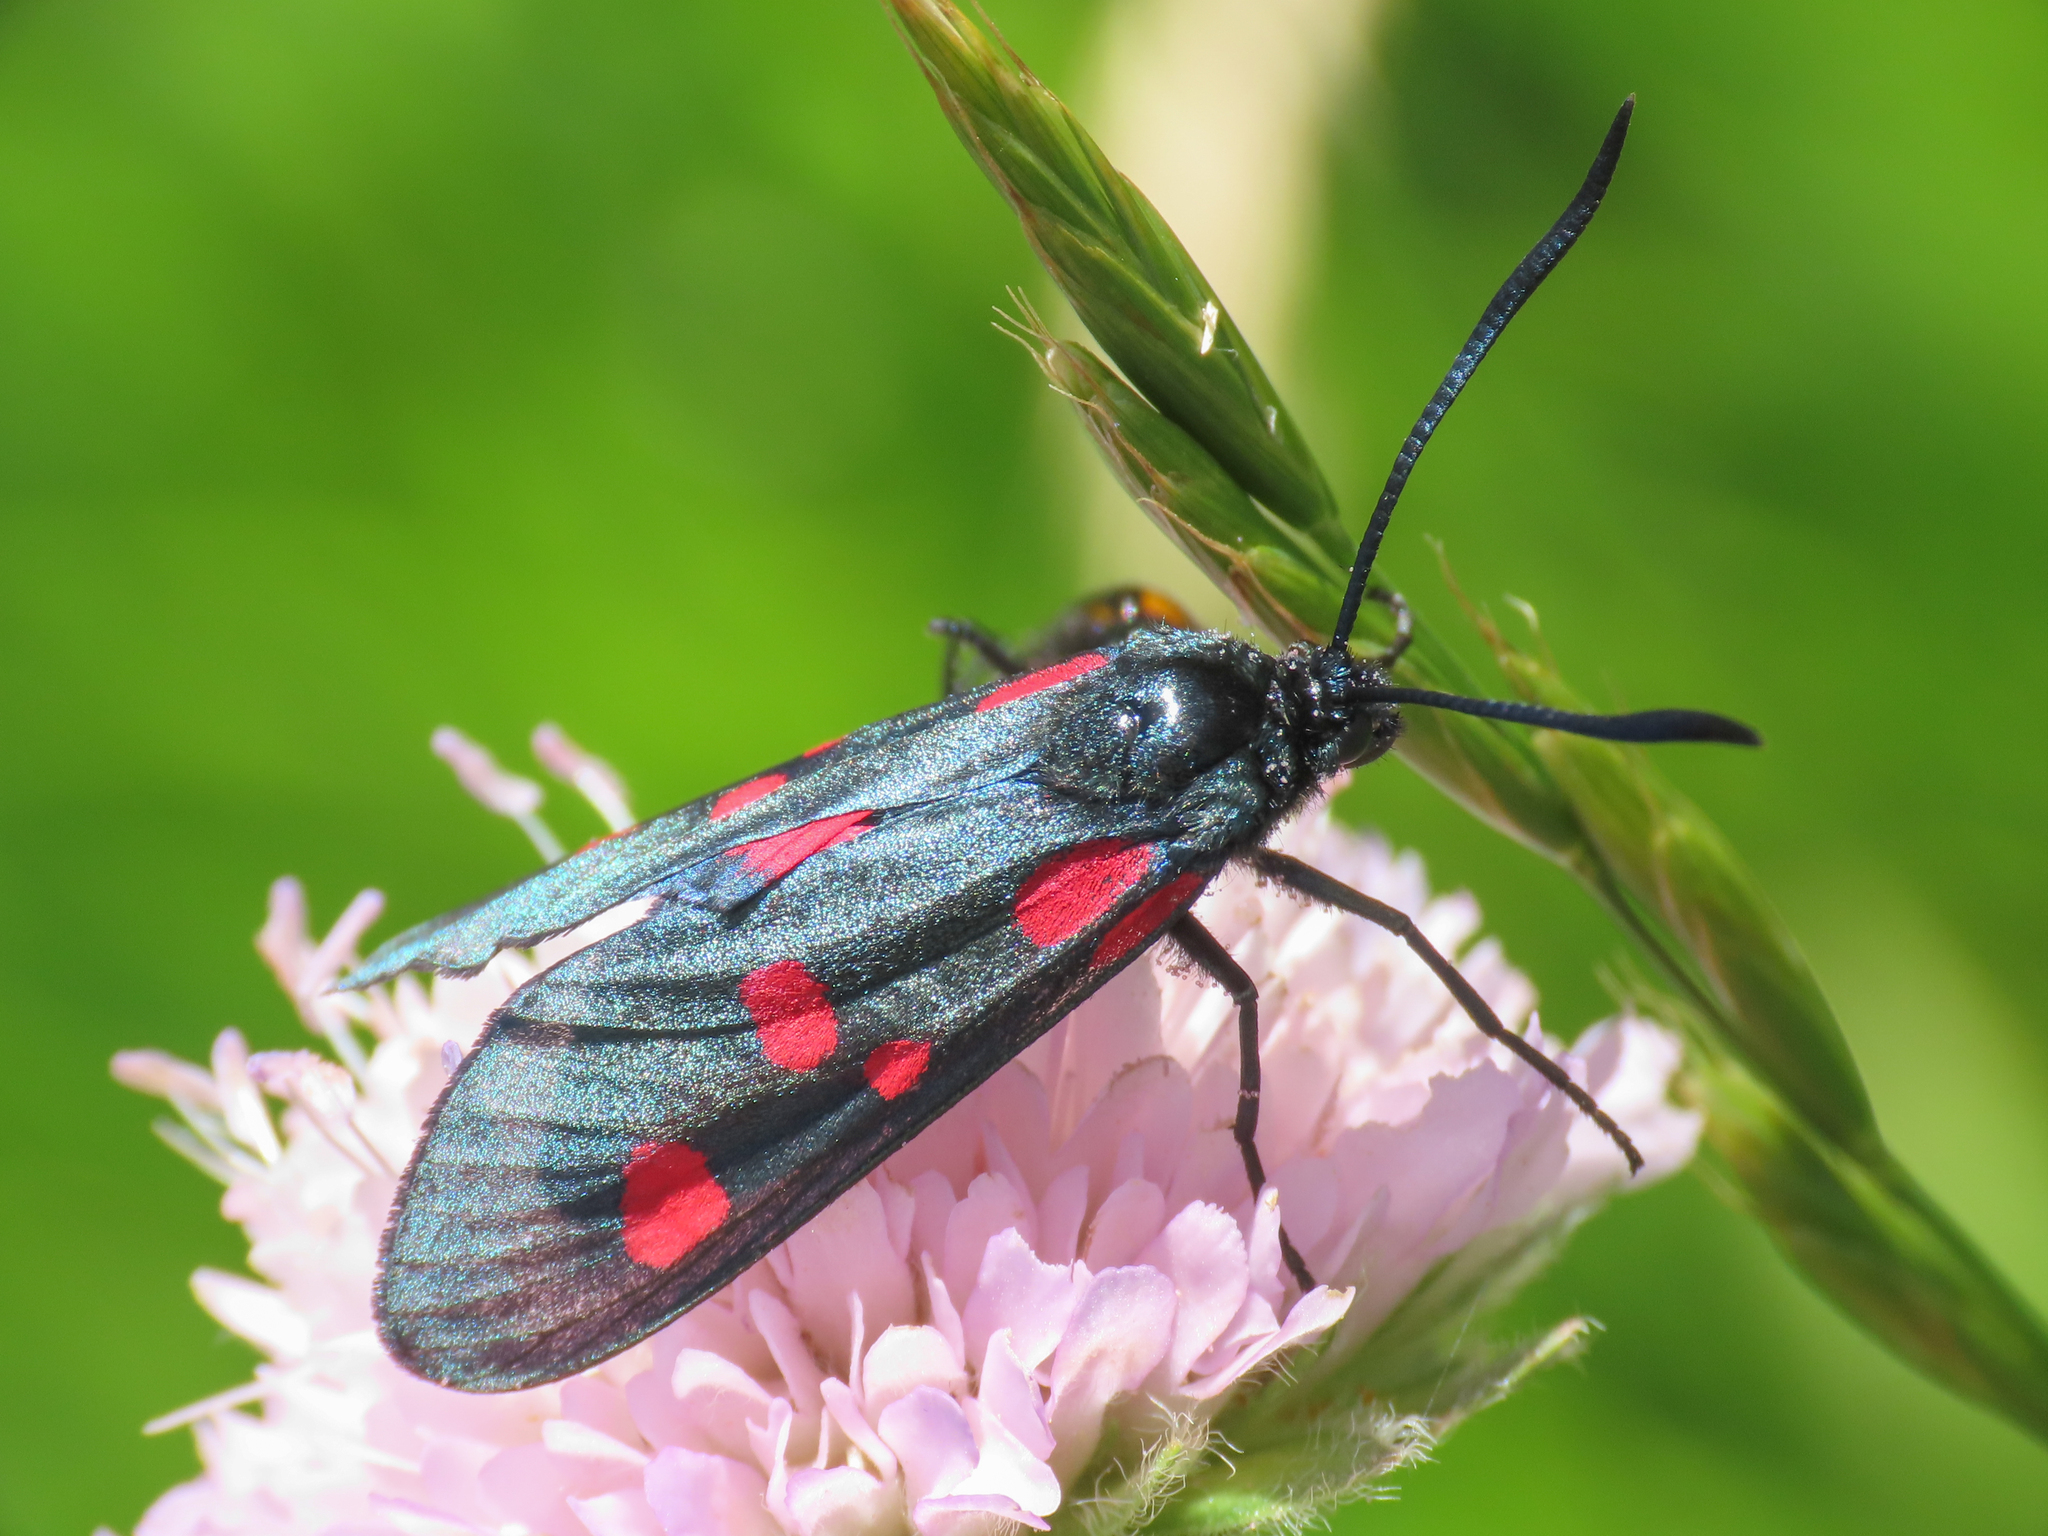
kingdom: Animalia
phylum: Arthropoda
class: Insecta
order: Lepidoptera
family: Zygaenidae
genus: Zygaena
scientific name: Zygaena lonicerae
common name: Narrow-bordered five-spot burnet
